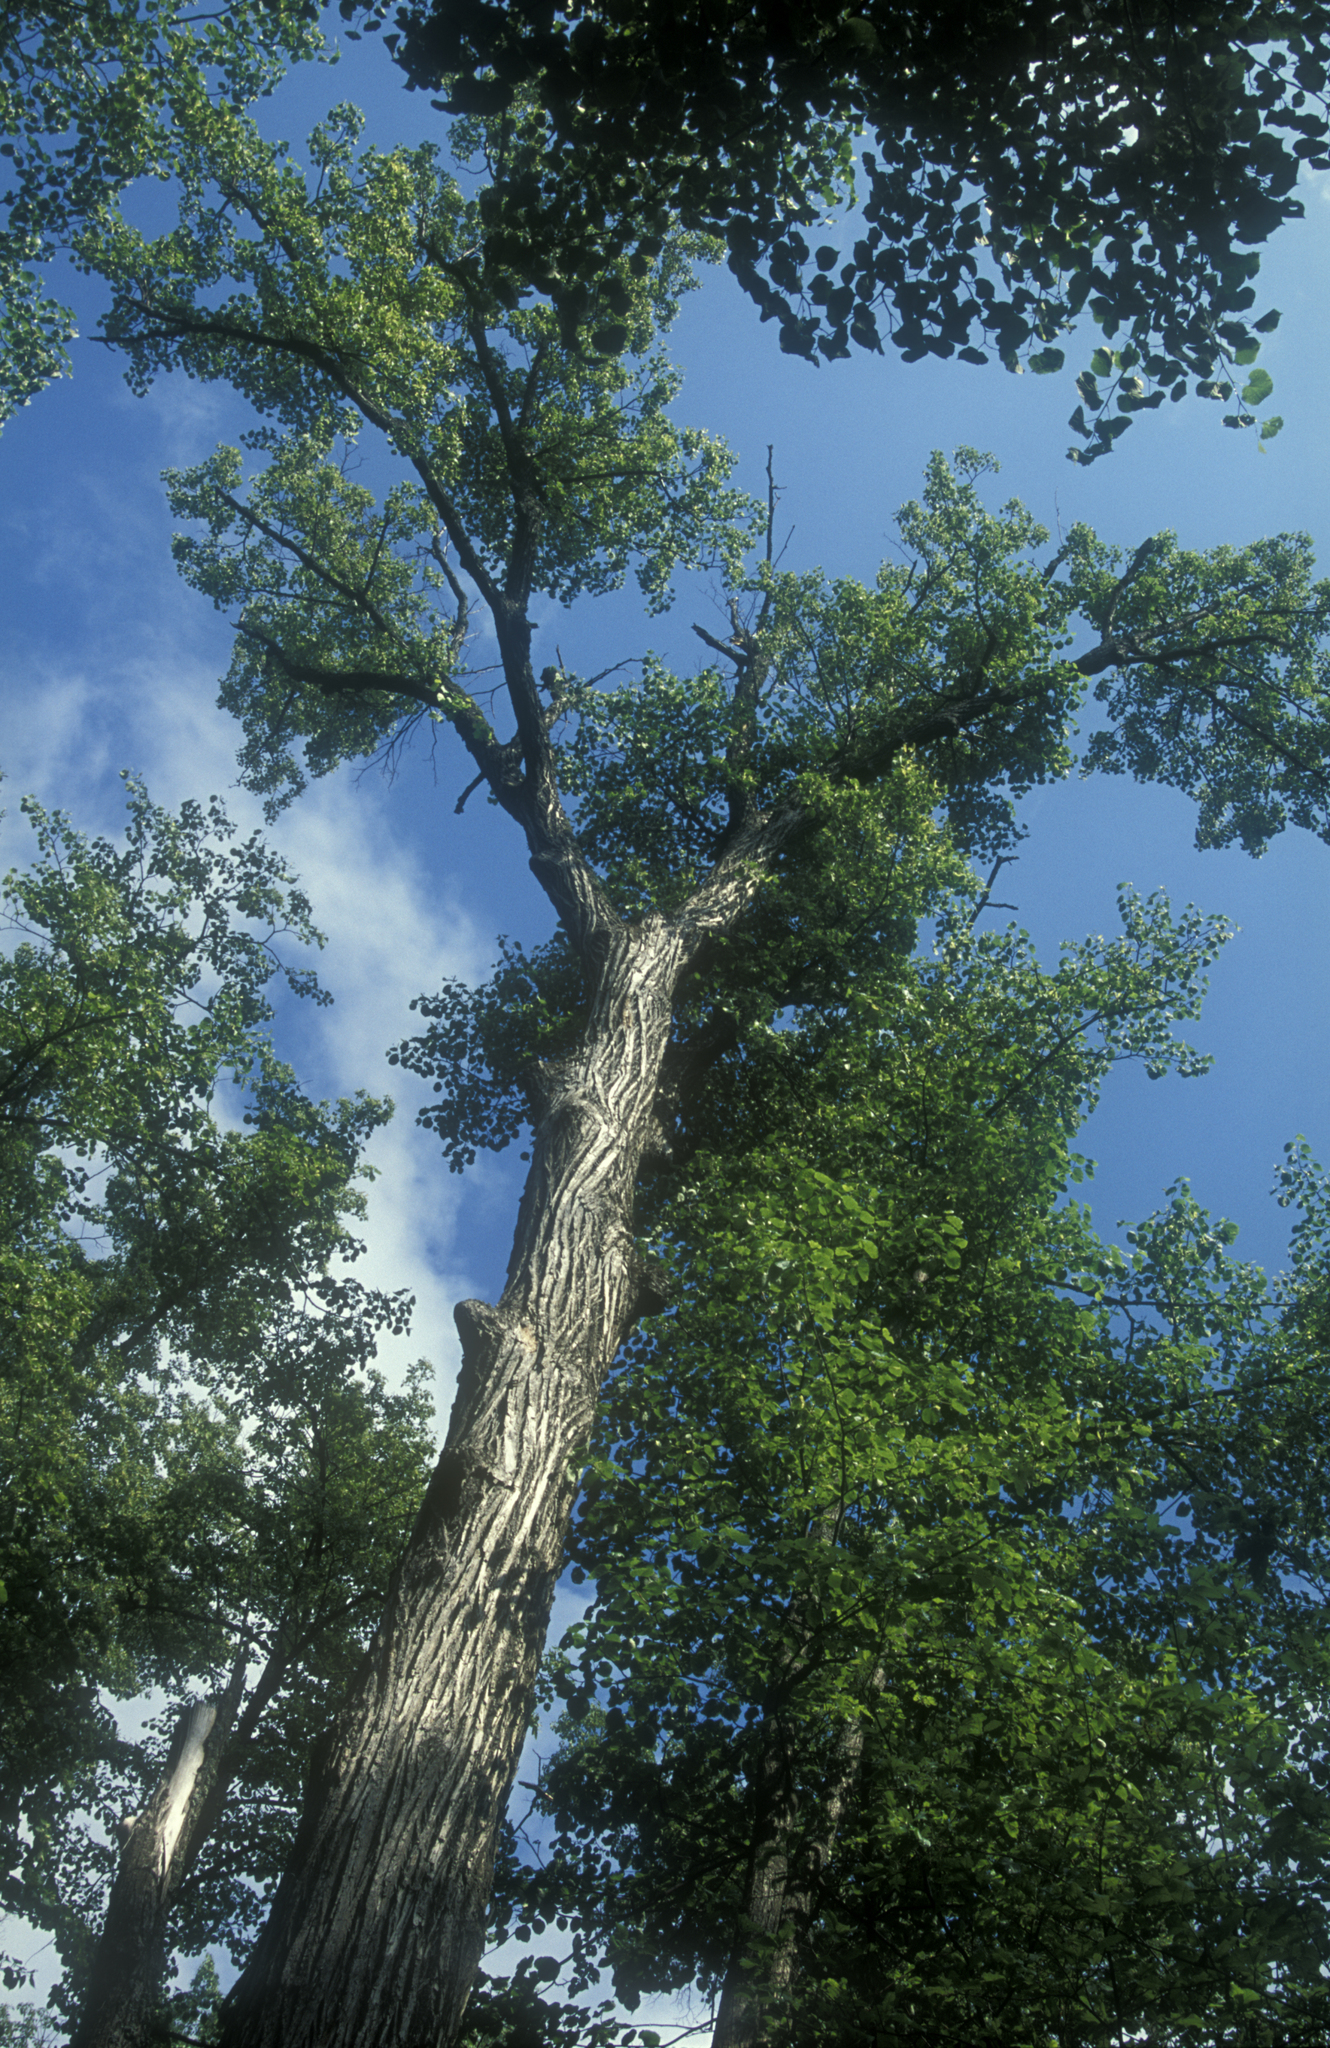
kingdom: Plantae
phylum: Tracheophyta
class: Magnoliopsida
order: Malvales
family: Malvaceae
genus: Tilia
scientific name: Tilia cordata
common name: Small-leaved lime
